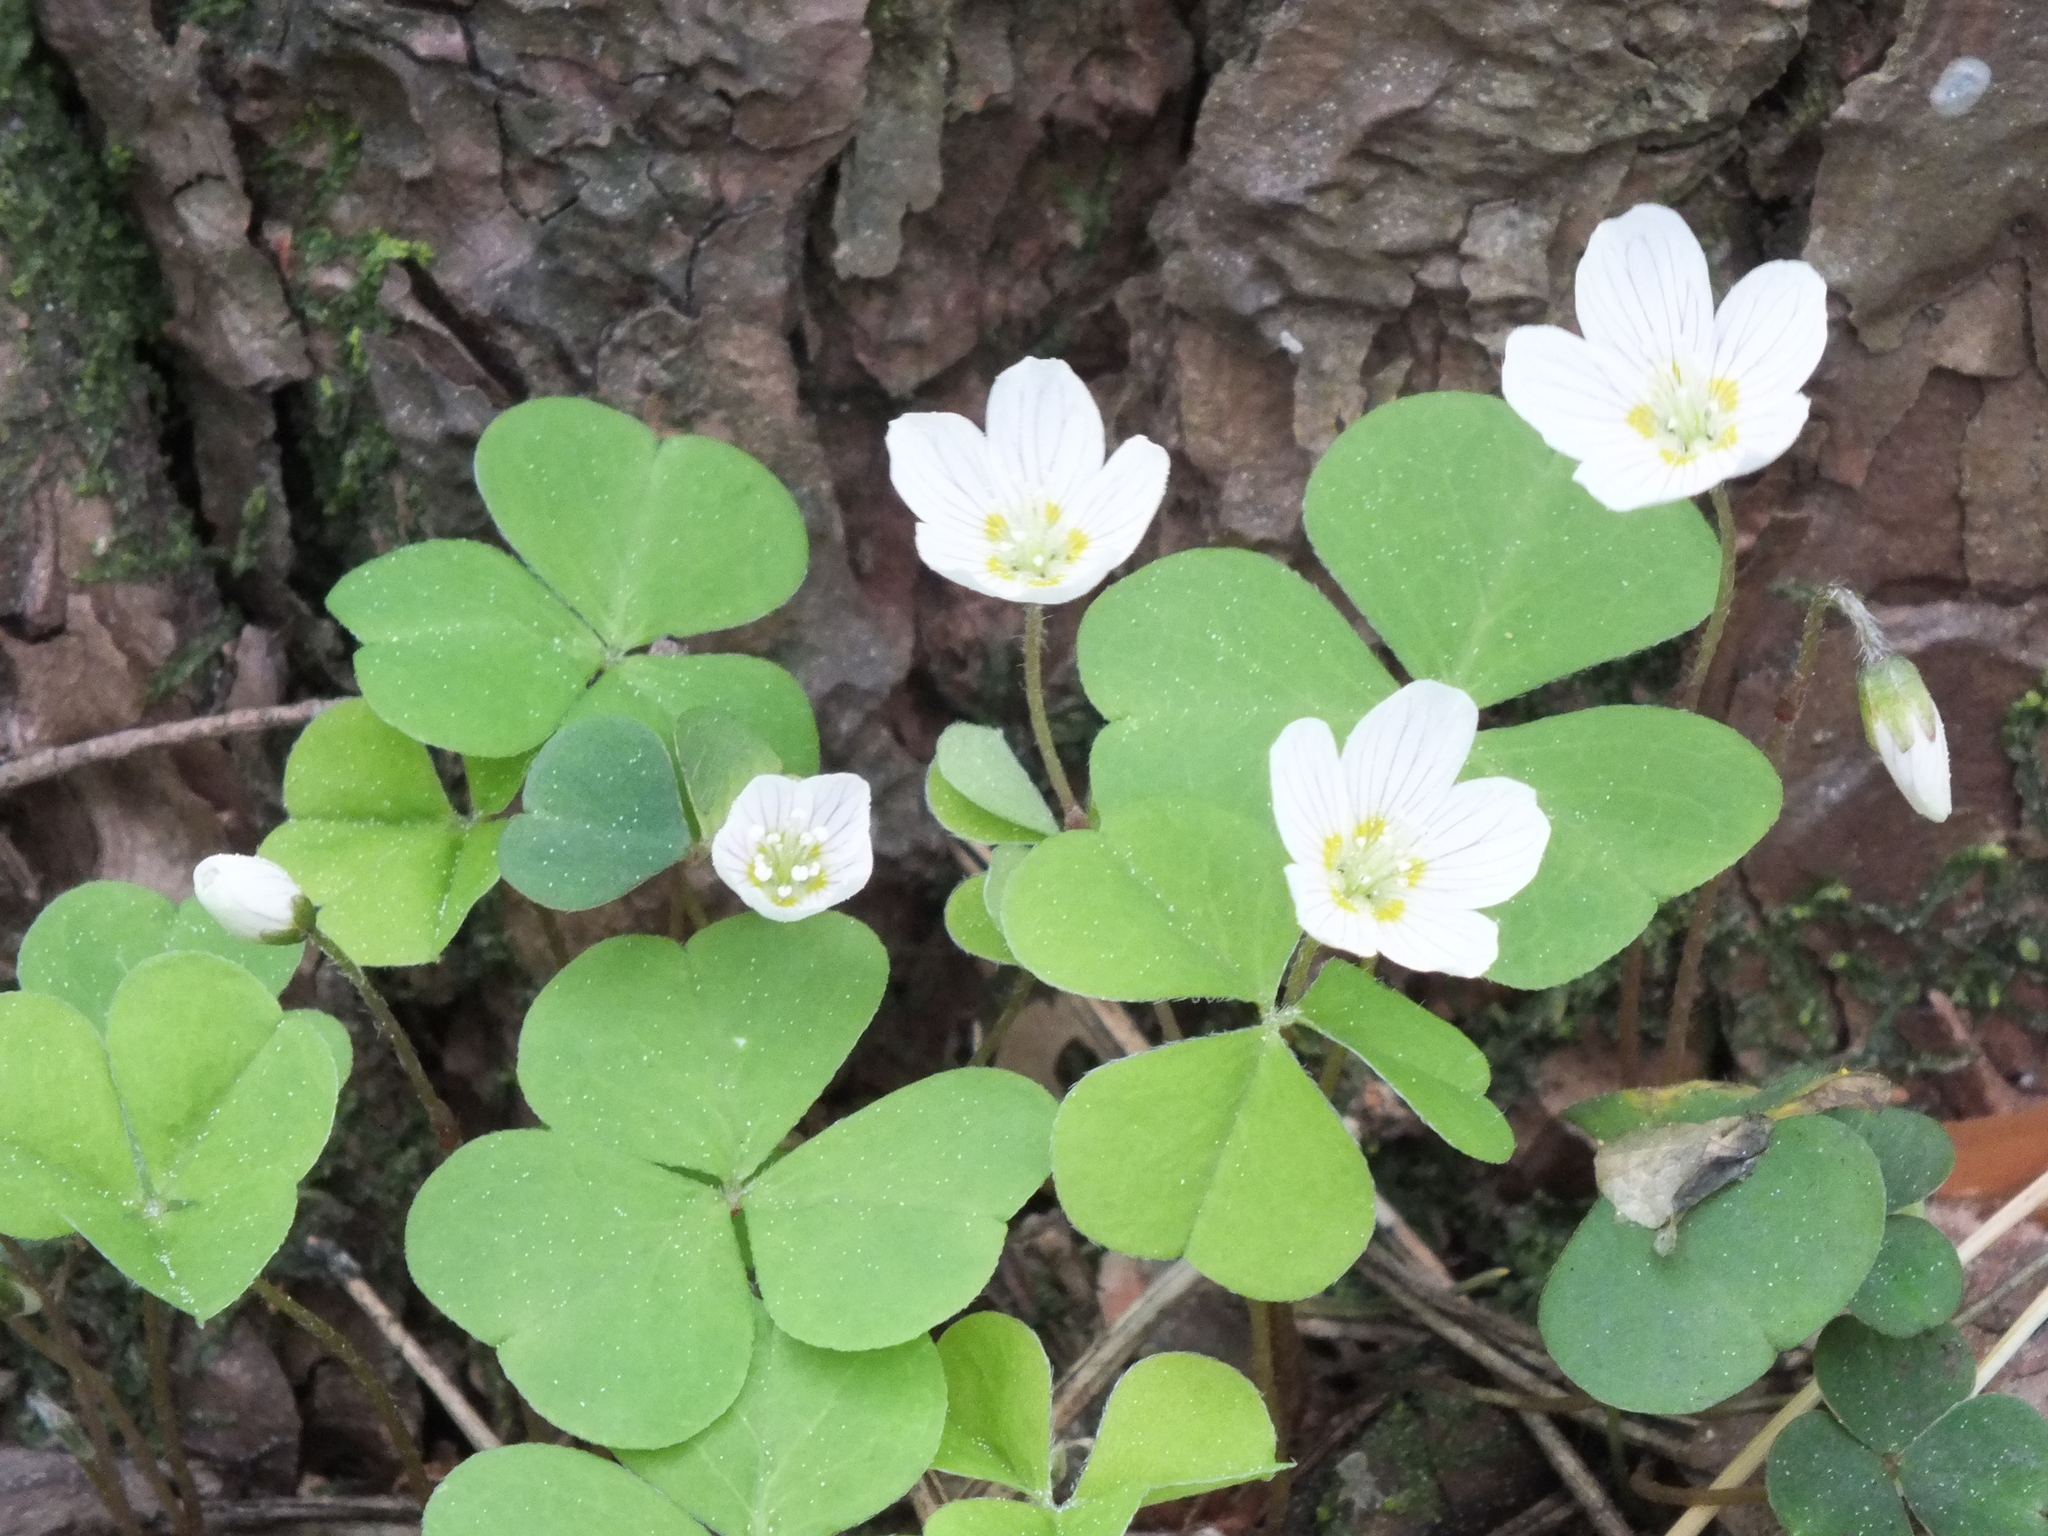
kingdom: Plantae
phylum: Tracheophyta
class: Magnoliopsida
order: Oxalidales
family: Oxalidaceae
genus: Oxalis
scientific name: Oxalis acetosella
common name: Wood-sorrel
